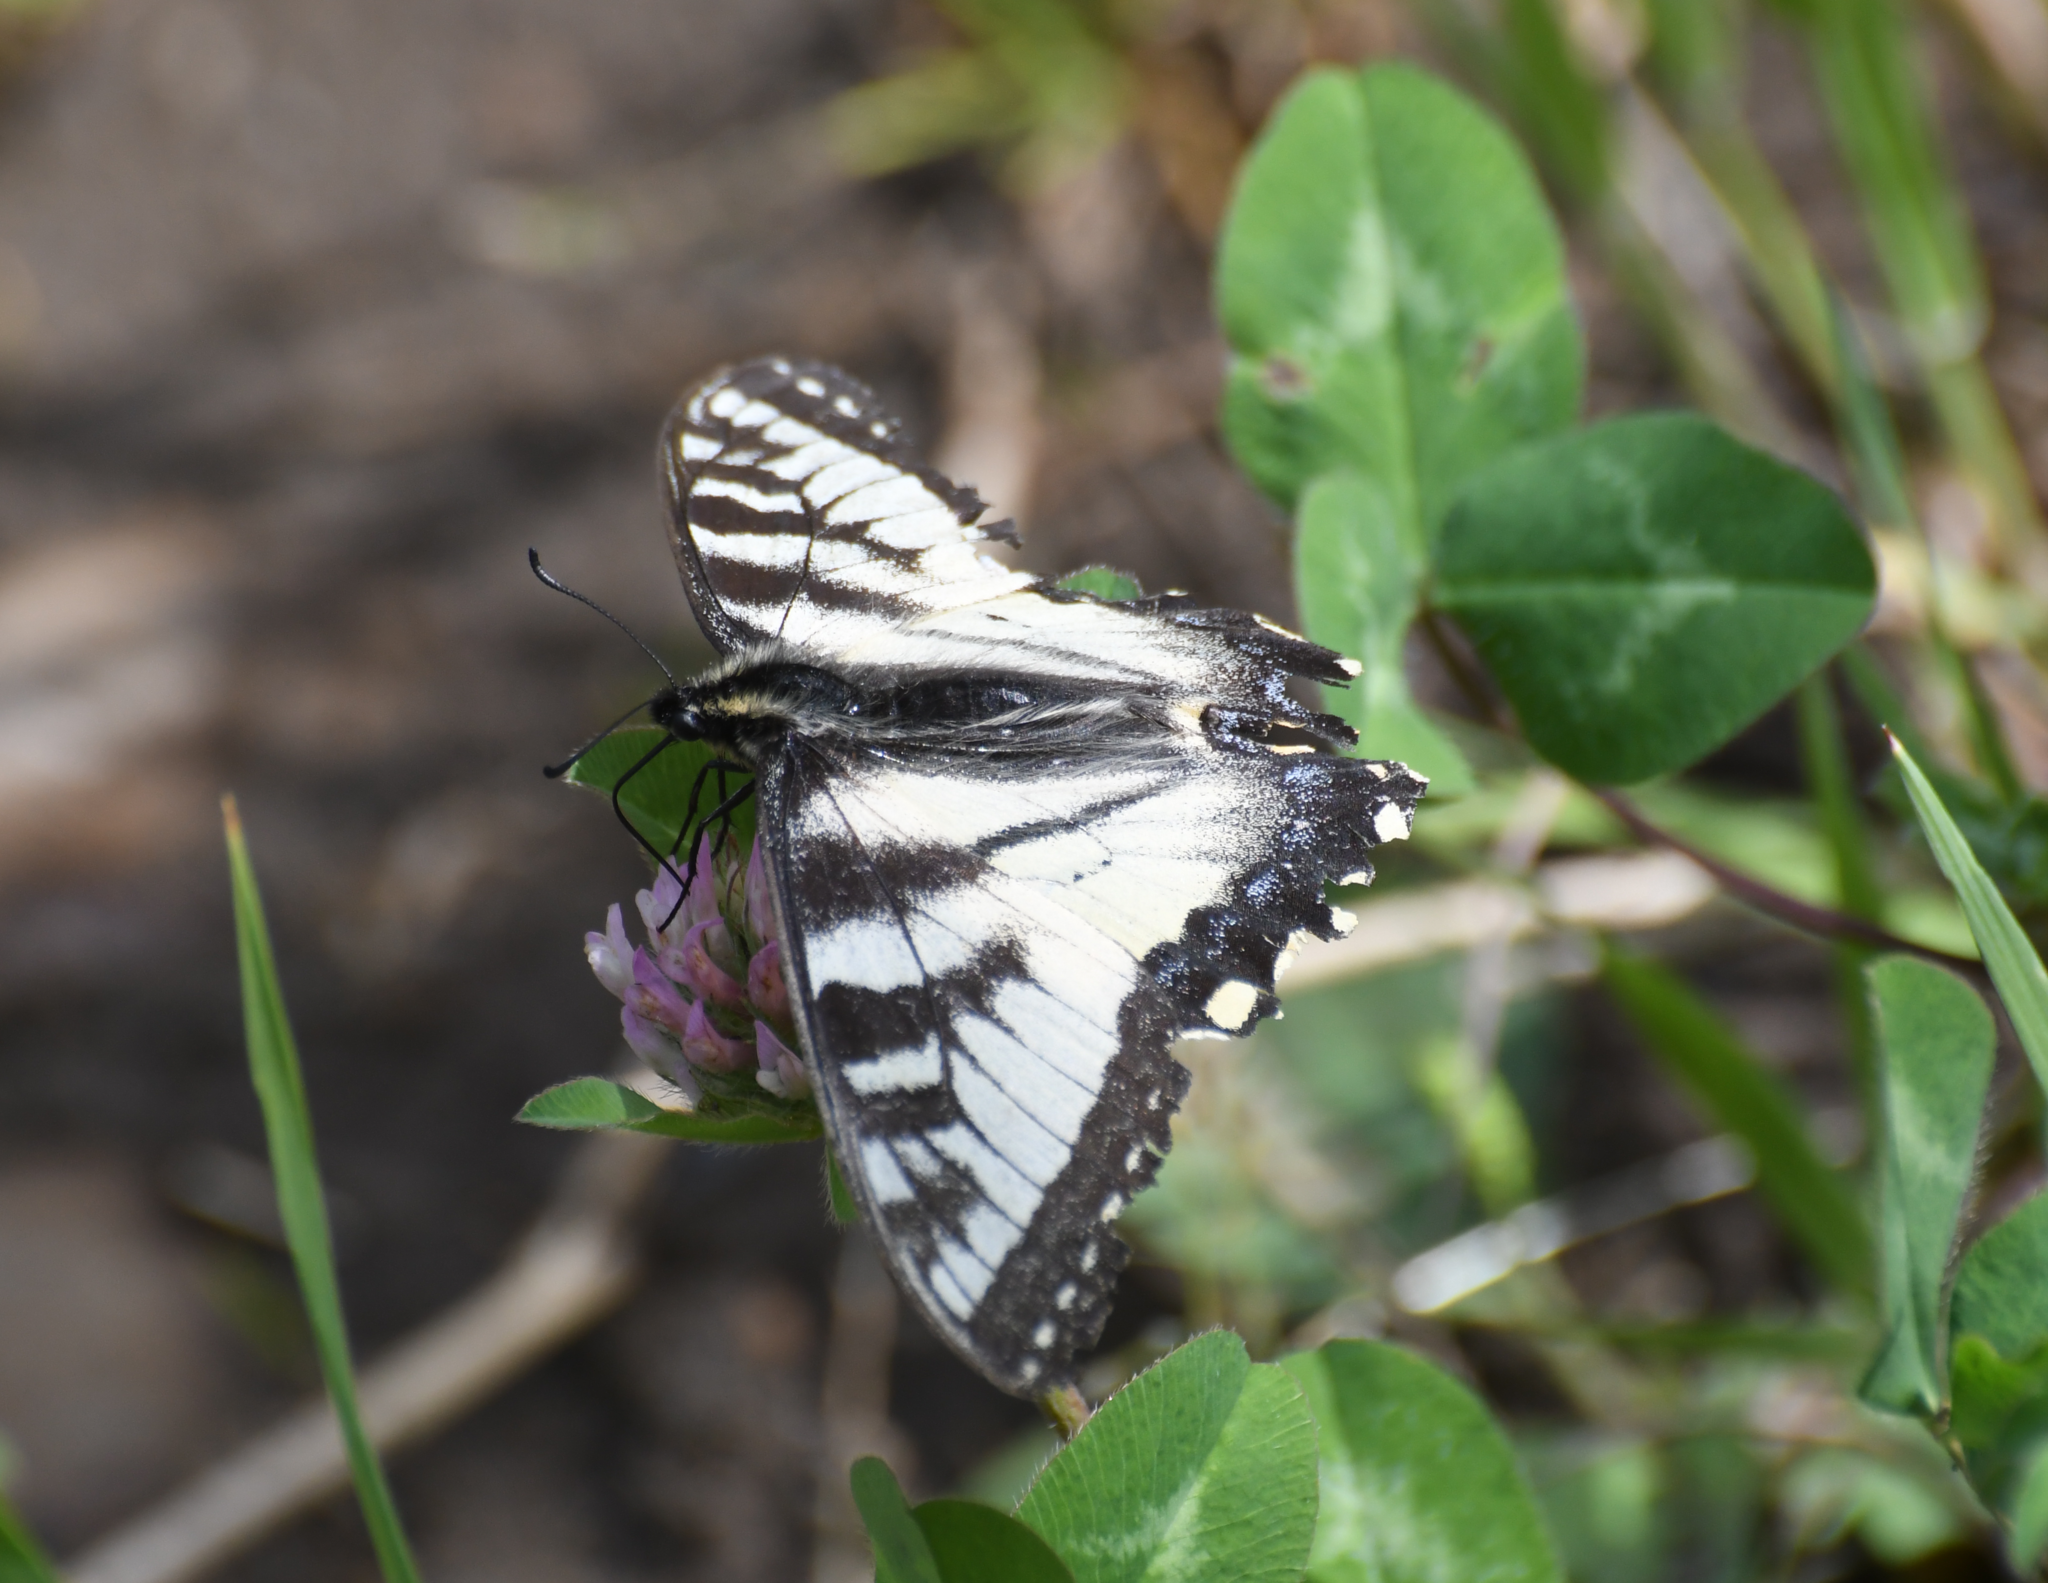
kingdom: Animalia
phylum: Arthropoda
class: Insecta
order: Lepidoptera
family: Papilionidae
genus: Papilio
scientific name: Papilio canadensis
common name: Canadian tiger swallowtail
